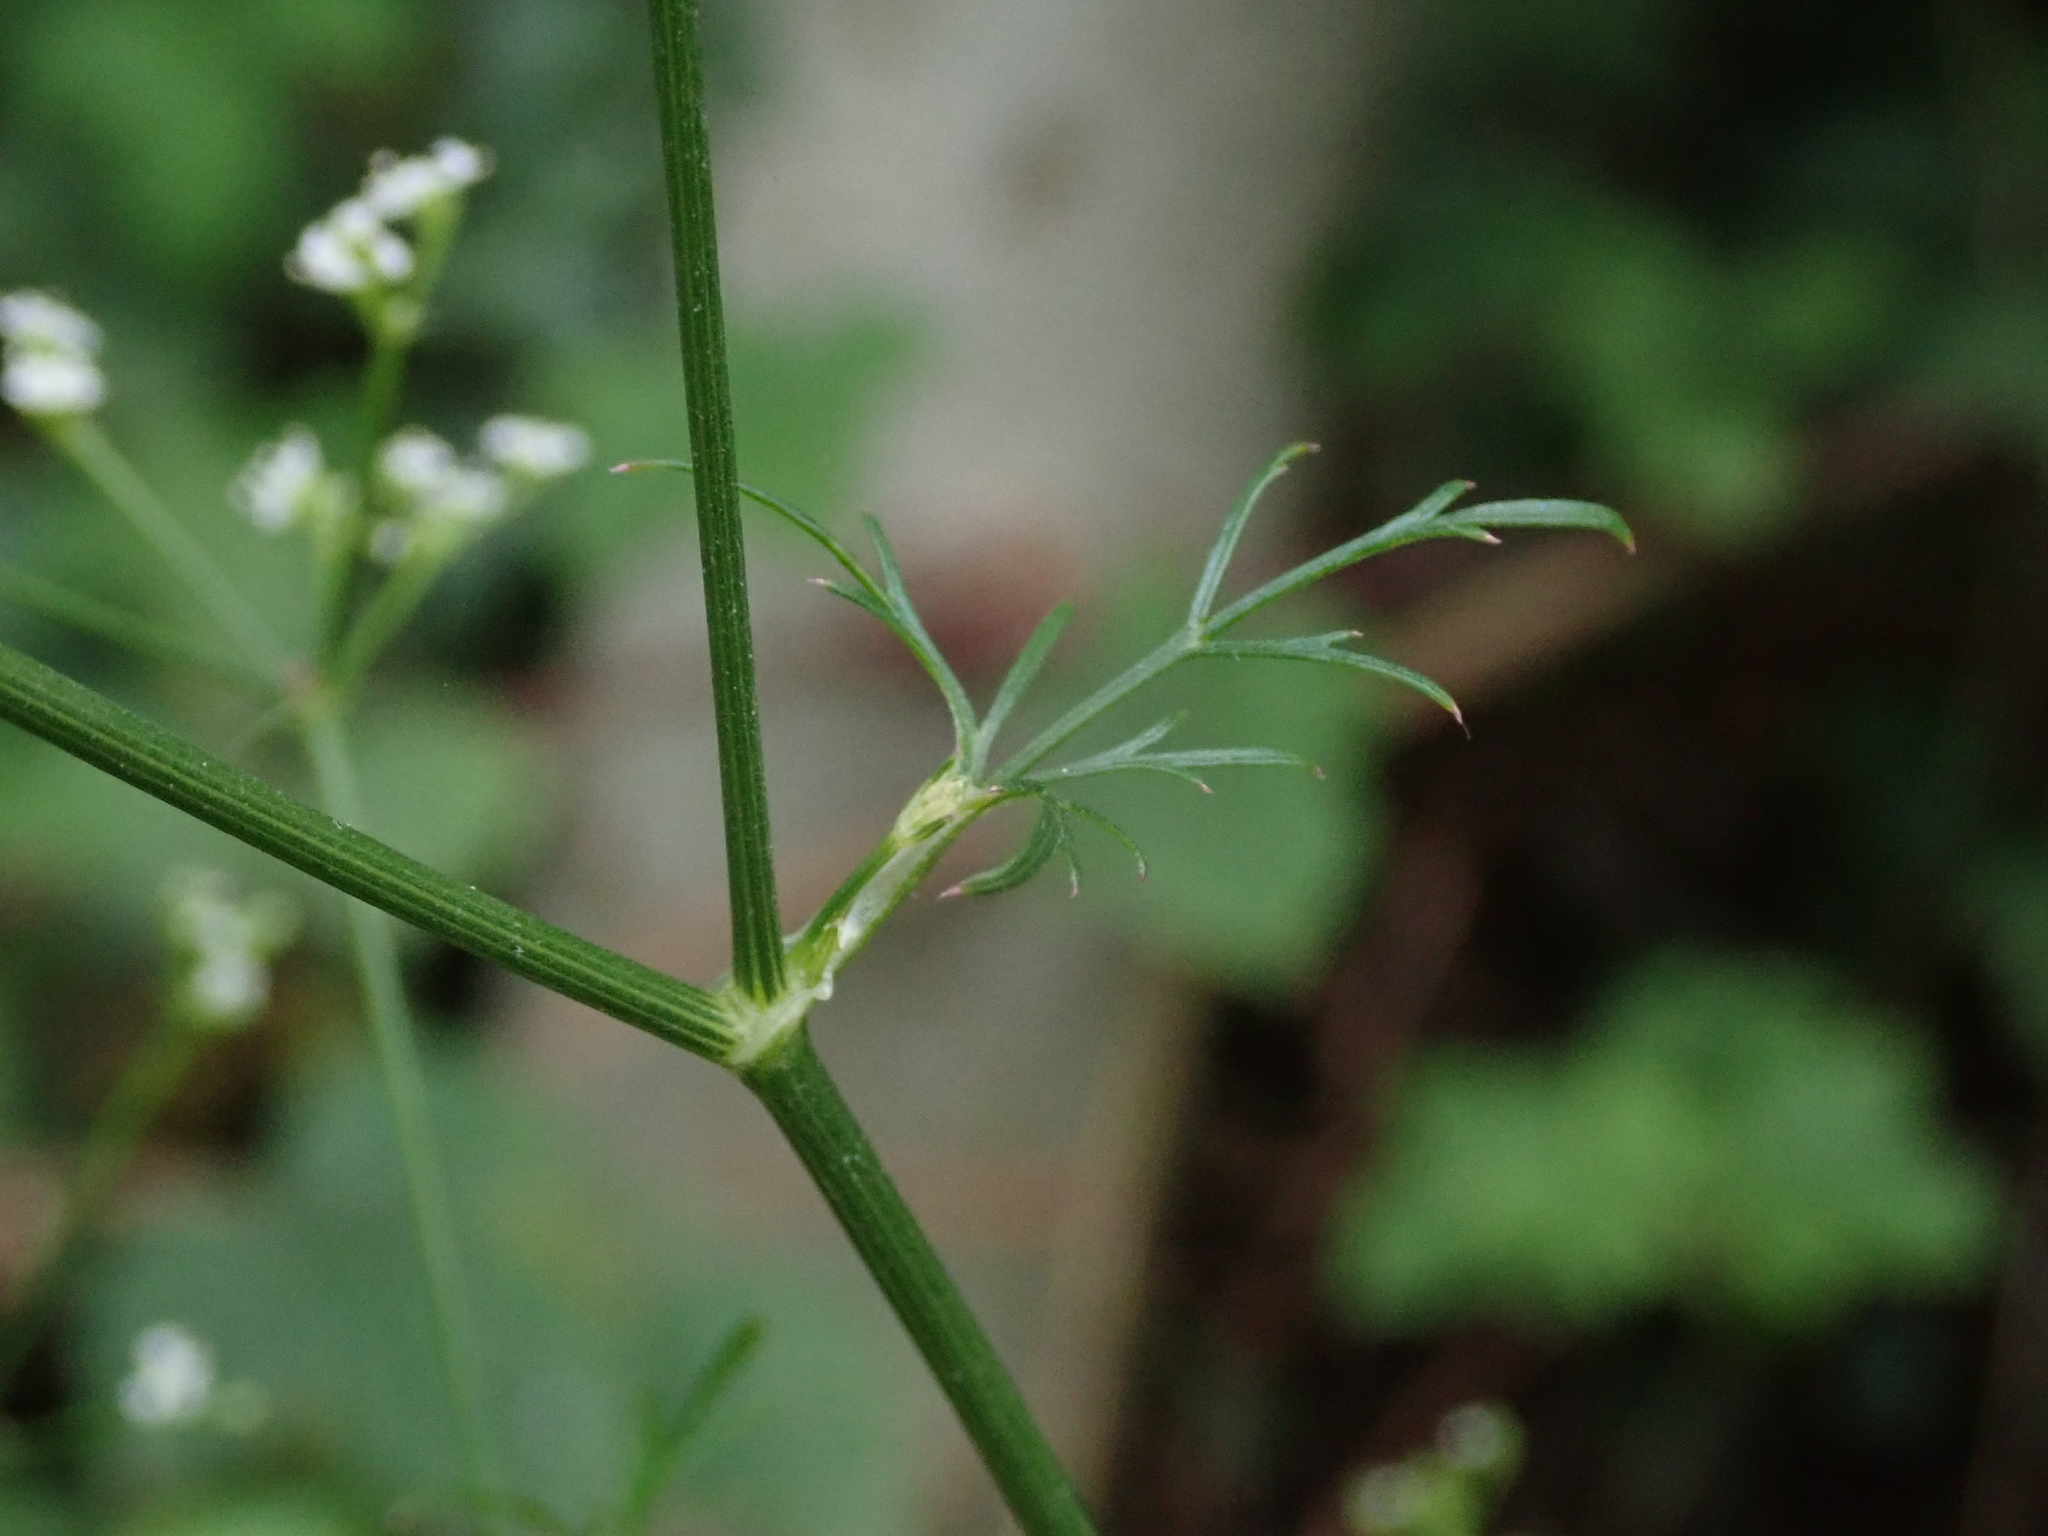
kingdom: Plantae
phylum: Tracheophyta
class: Magnoliopsida
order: Apiales
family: Apiaceae
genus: Sison
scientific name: Sison amomum
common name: Stone-parsley
